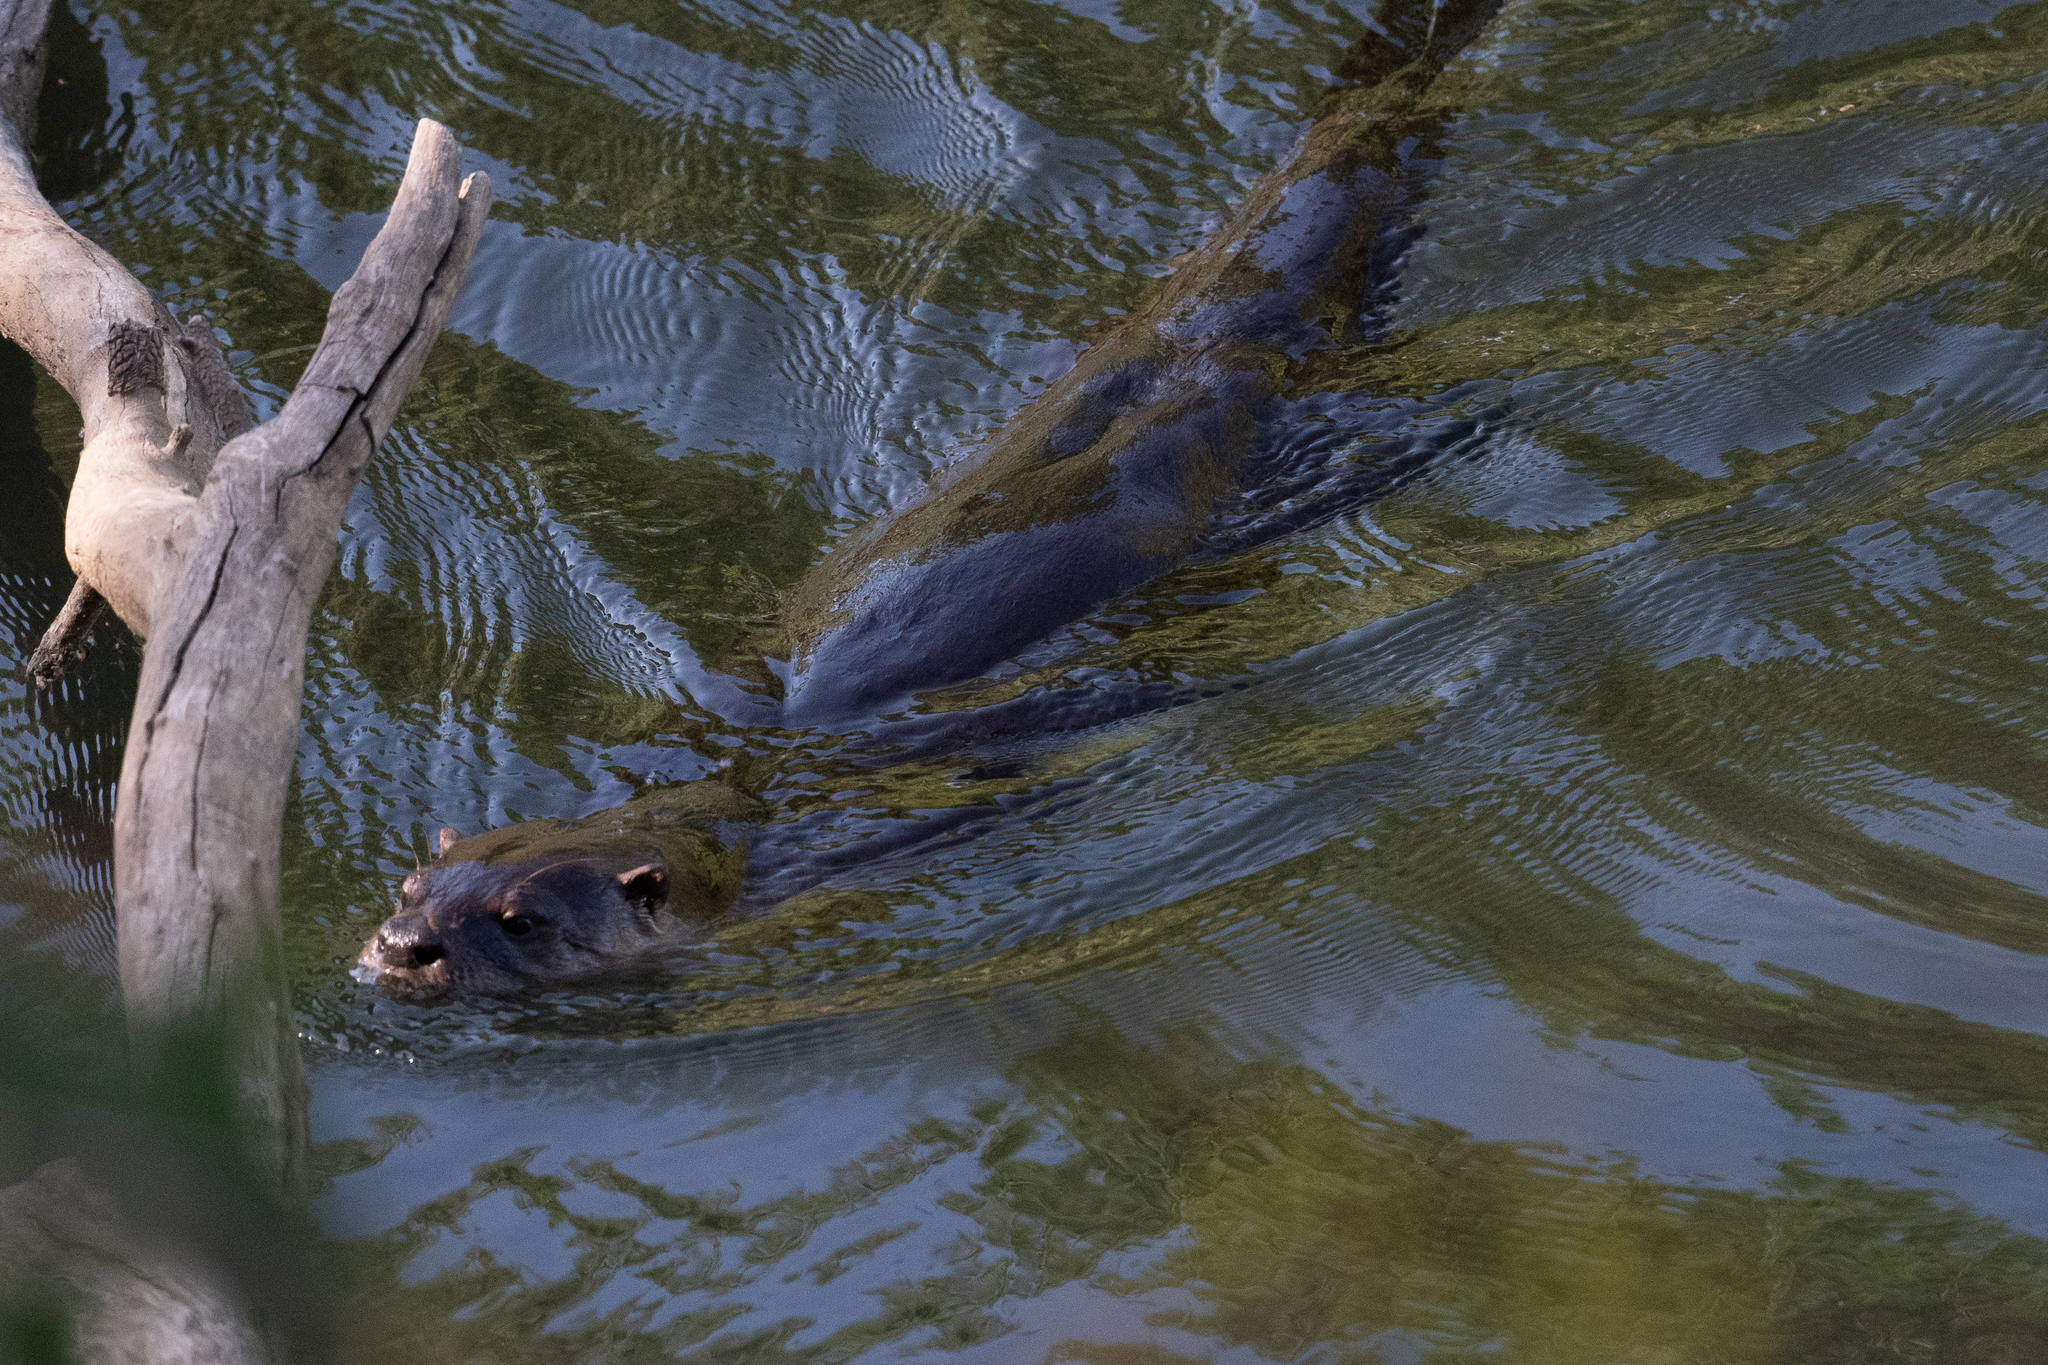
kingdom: Animalia
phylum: Chordata
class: Mammalia
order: Carnivora
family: Mustelidae
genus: Lontra
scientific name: Lontra canadensis
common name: North american river otter
